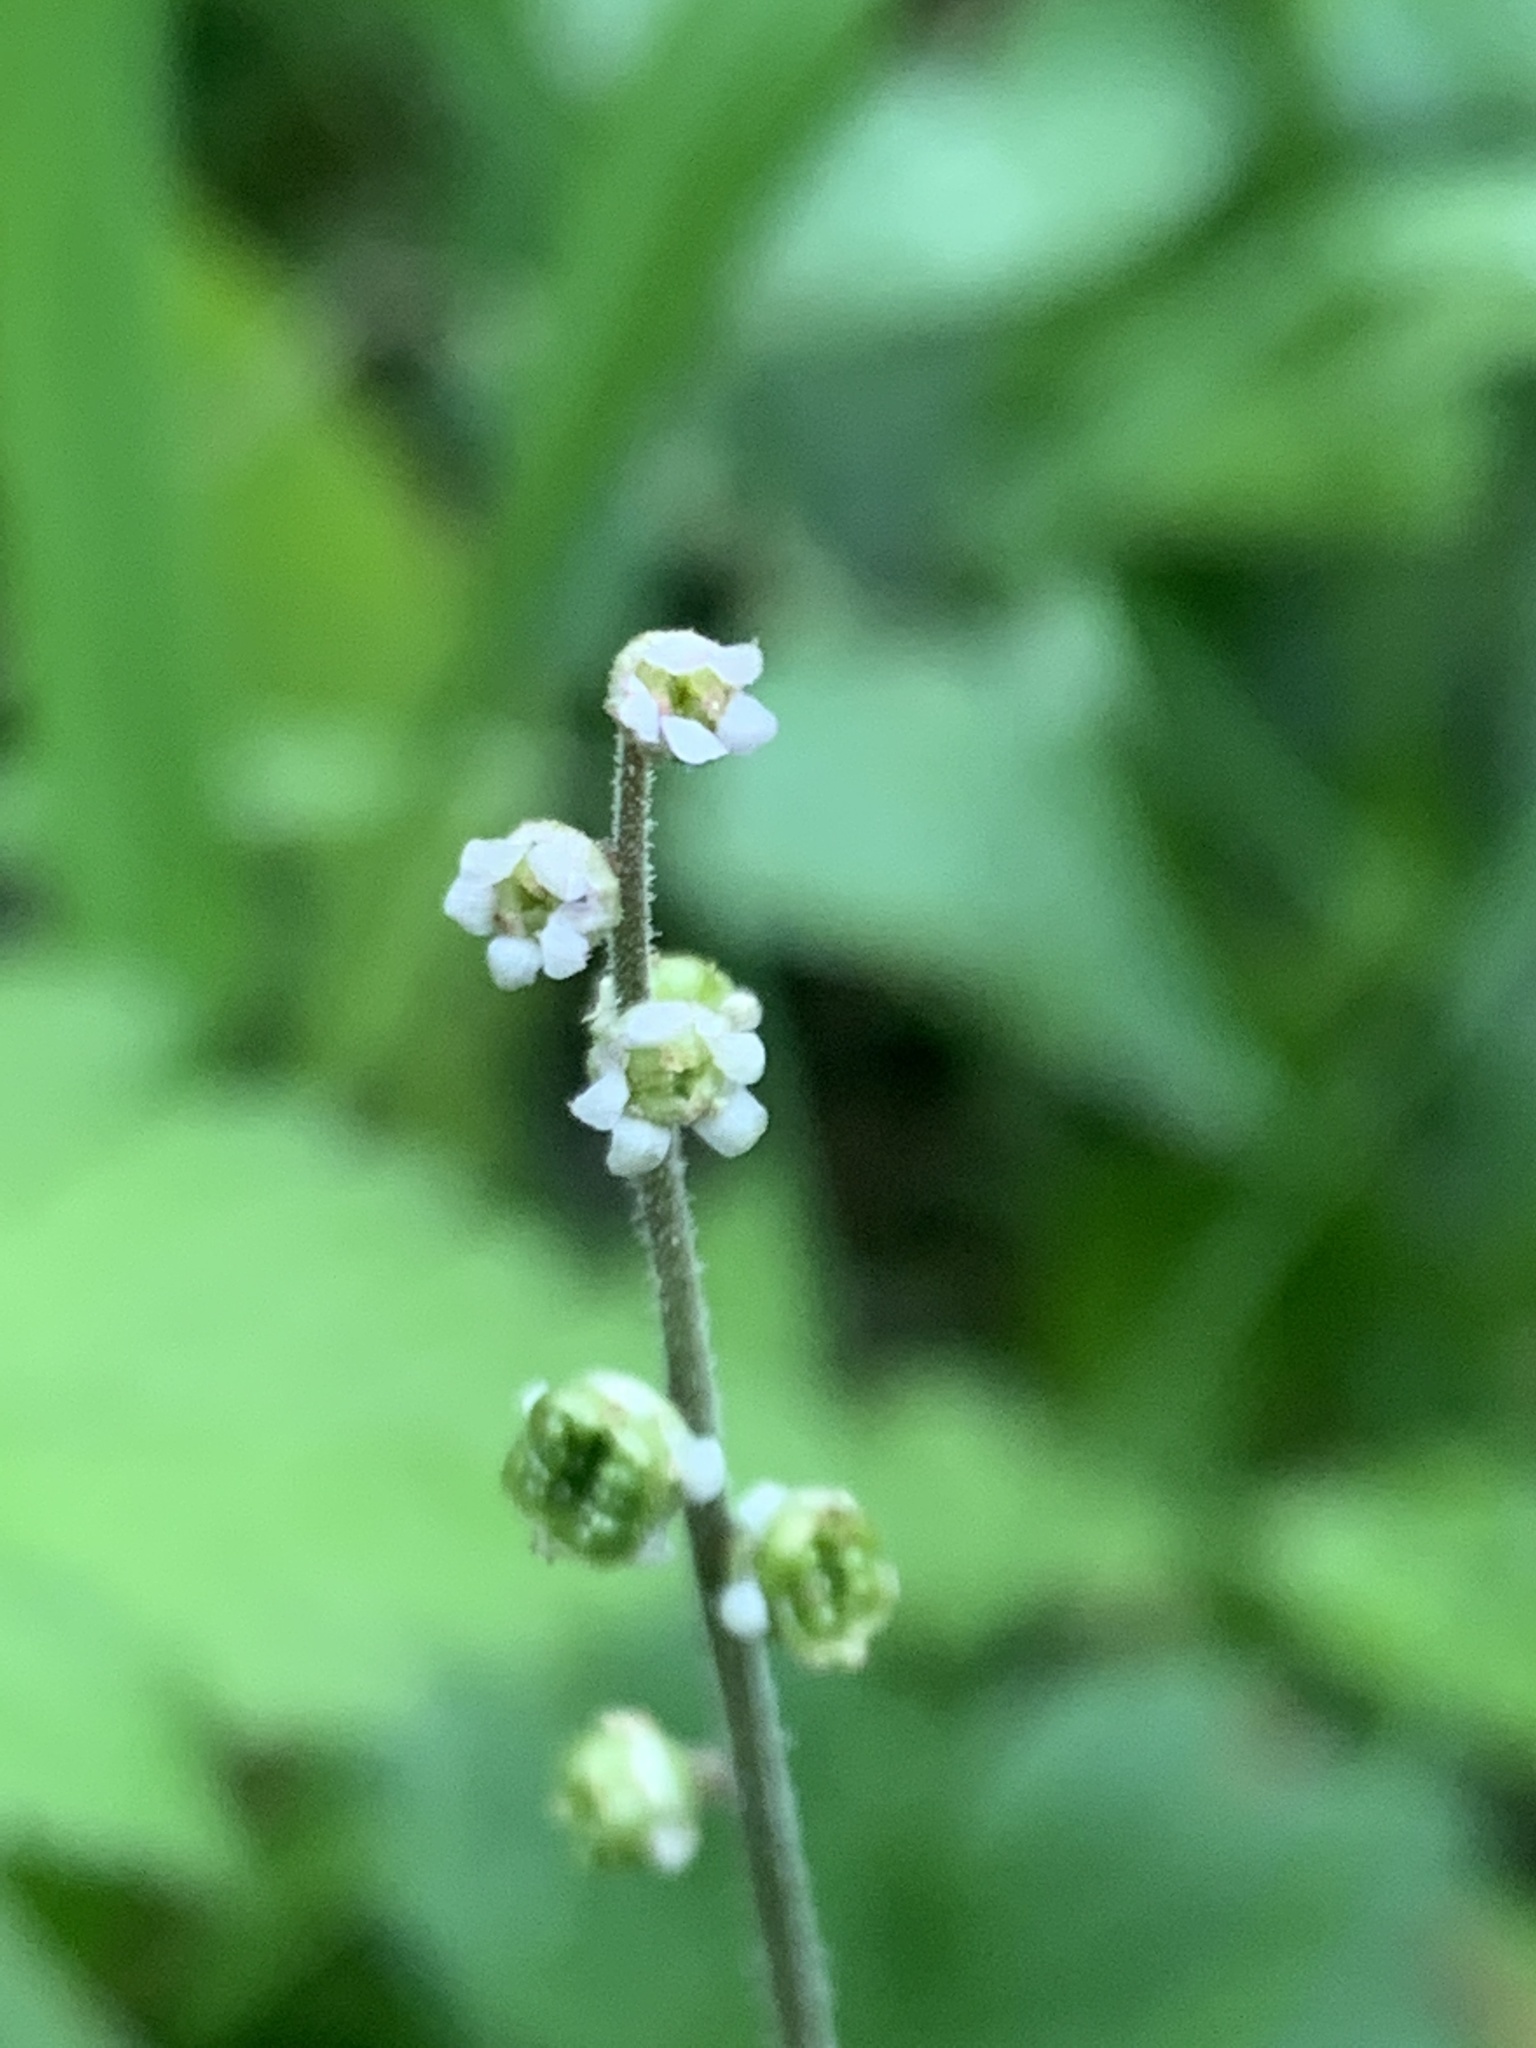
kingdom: Plantae
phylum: Tracheophyta
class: Magnoliopsida
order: Saxifragales
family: Saxifragaceae
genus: Ozomelis
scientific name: Ozomelis trifida
